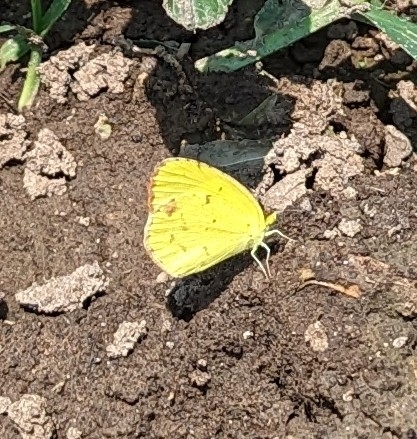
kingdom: Animalia
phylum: Arthropoda
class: Insecta
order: Lepidoptera
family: Pieridae
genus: Pyrisitia
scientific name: Pyrisitia lisa
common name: Little yellow
